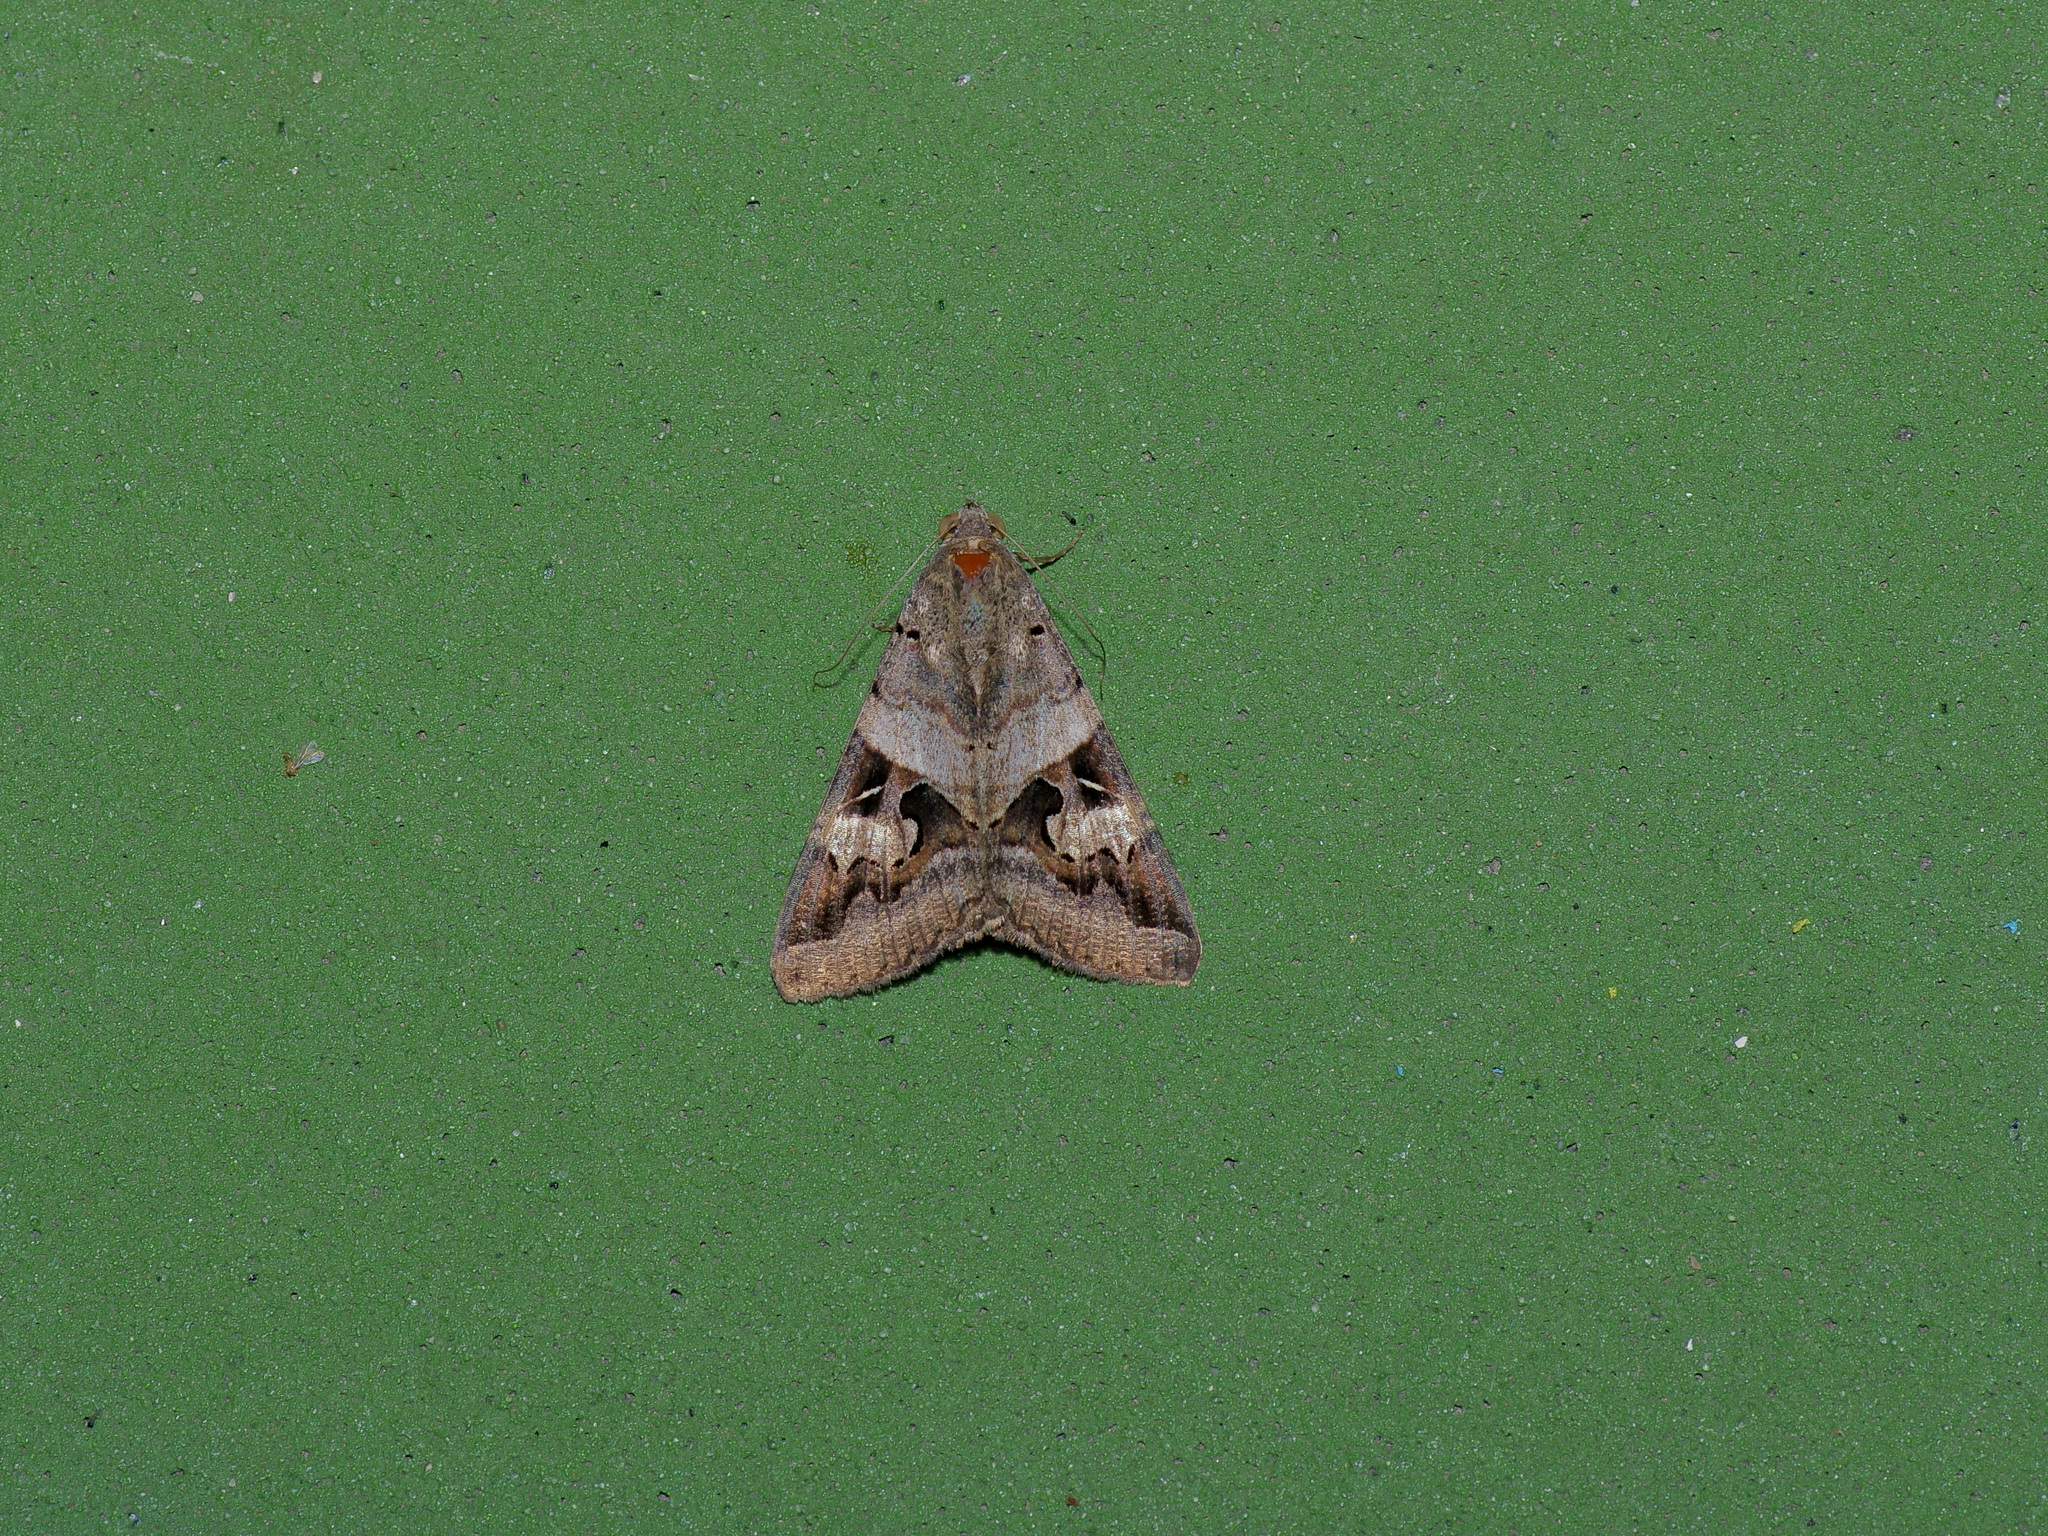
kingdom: Animalia
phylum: Arthropoda
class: Insecta
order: Lepidoptera
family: Erebidae
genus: Melipotis
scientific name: Melipotis indomita
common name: Moth
